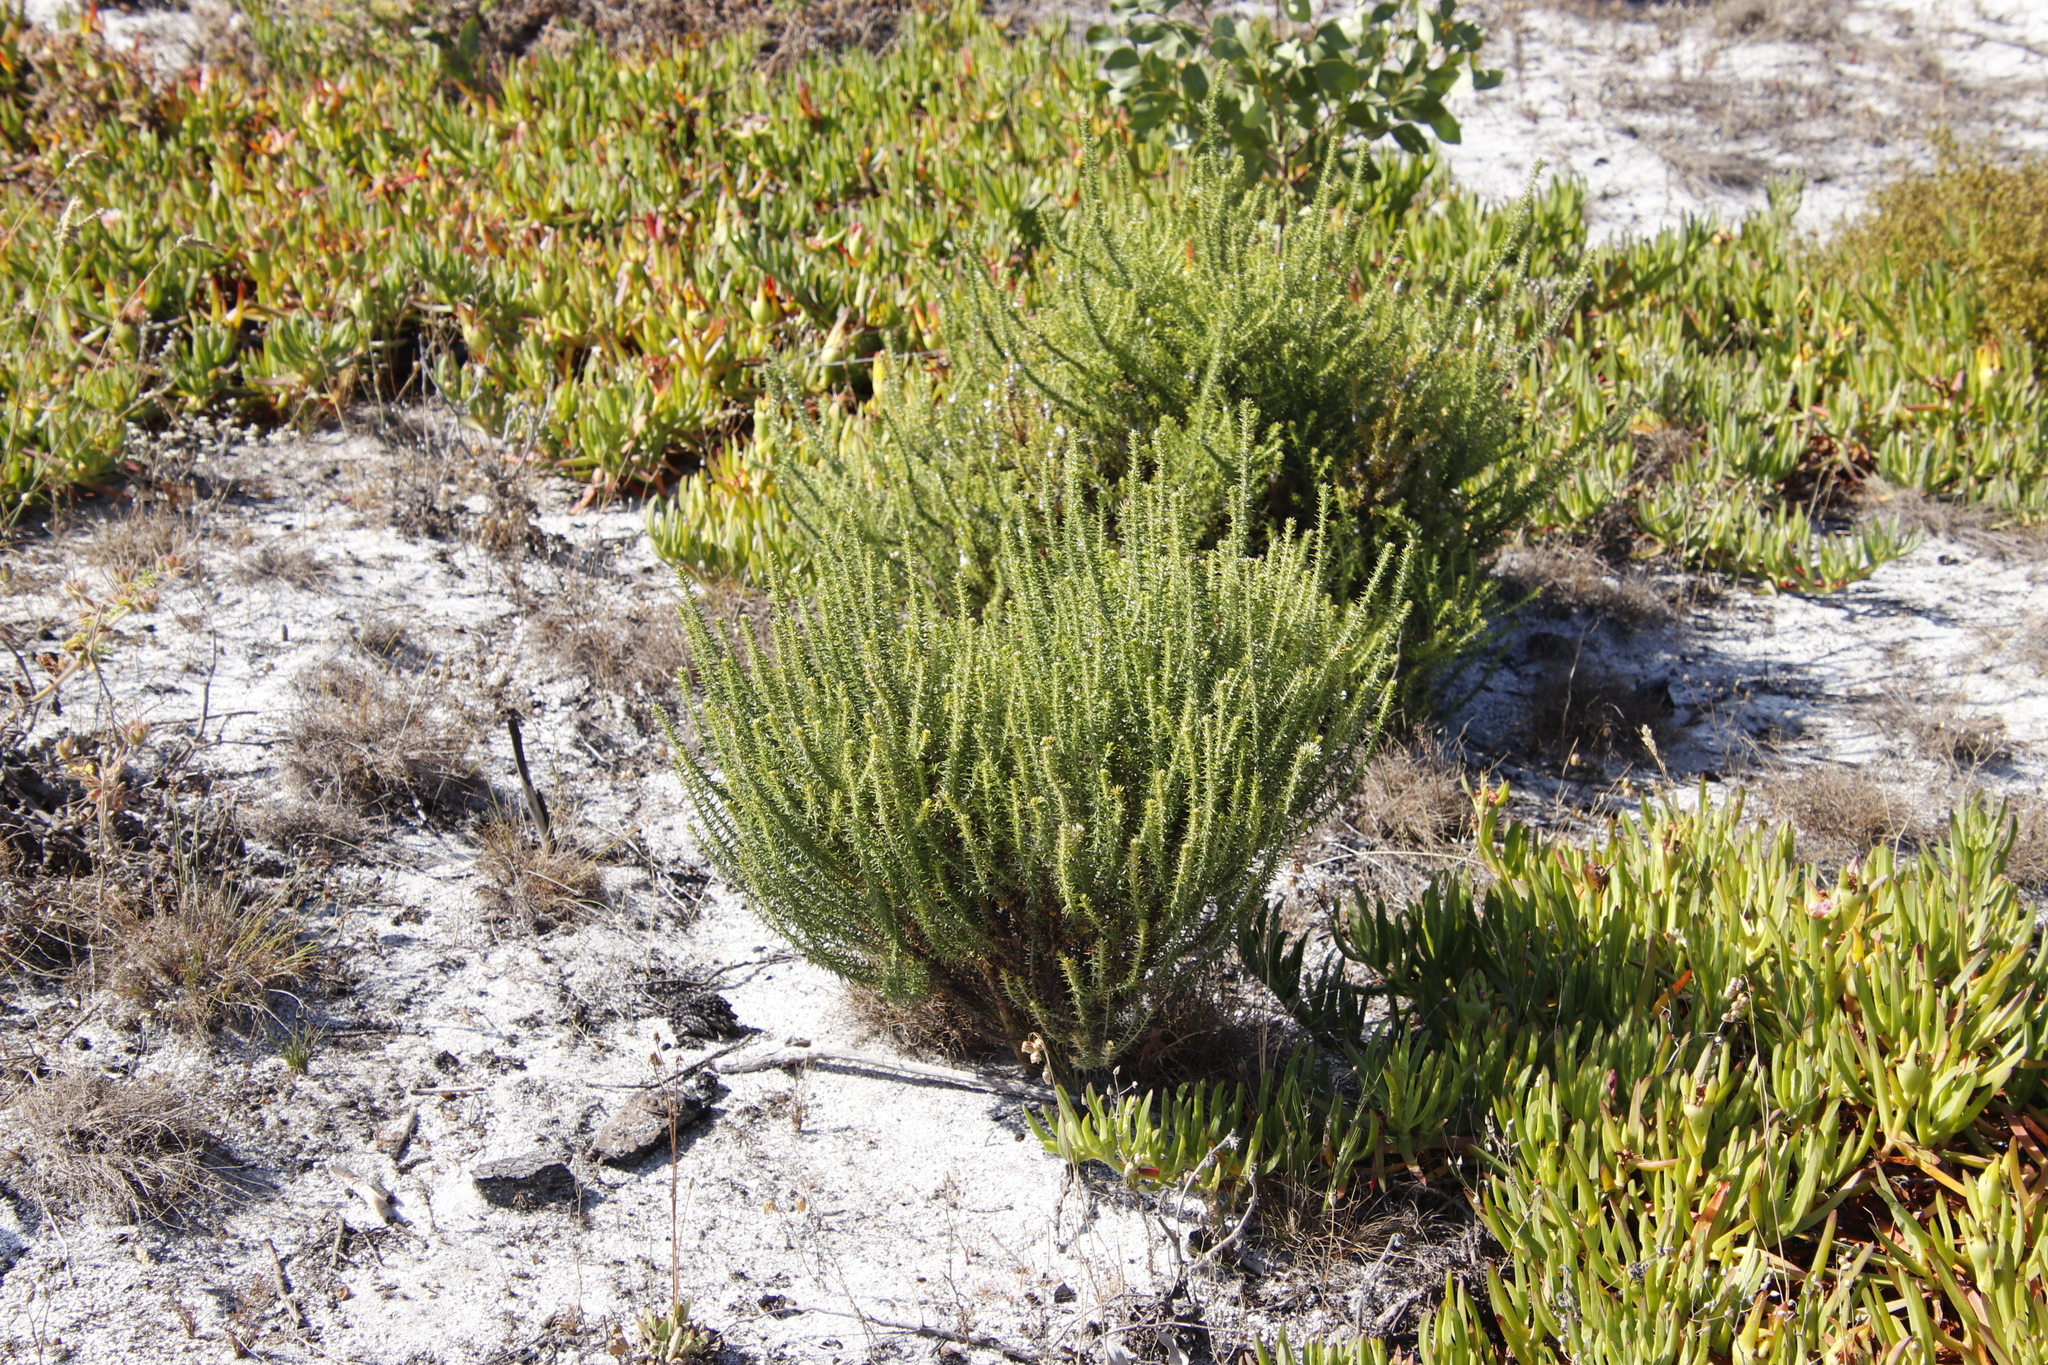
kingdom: Plantae
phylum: Tracheophyta
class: Magnoliopsida
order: Asterales
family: Asteraceae
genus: Metalasia
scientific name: Metalasia densa
